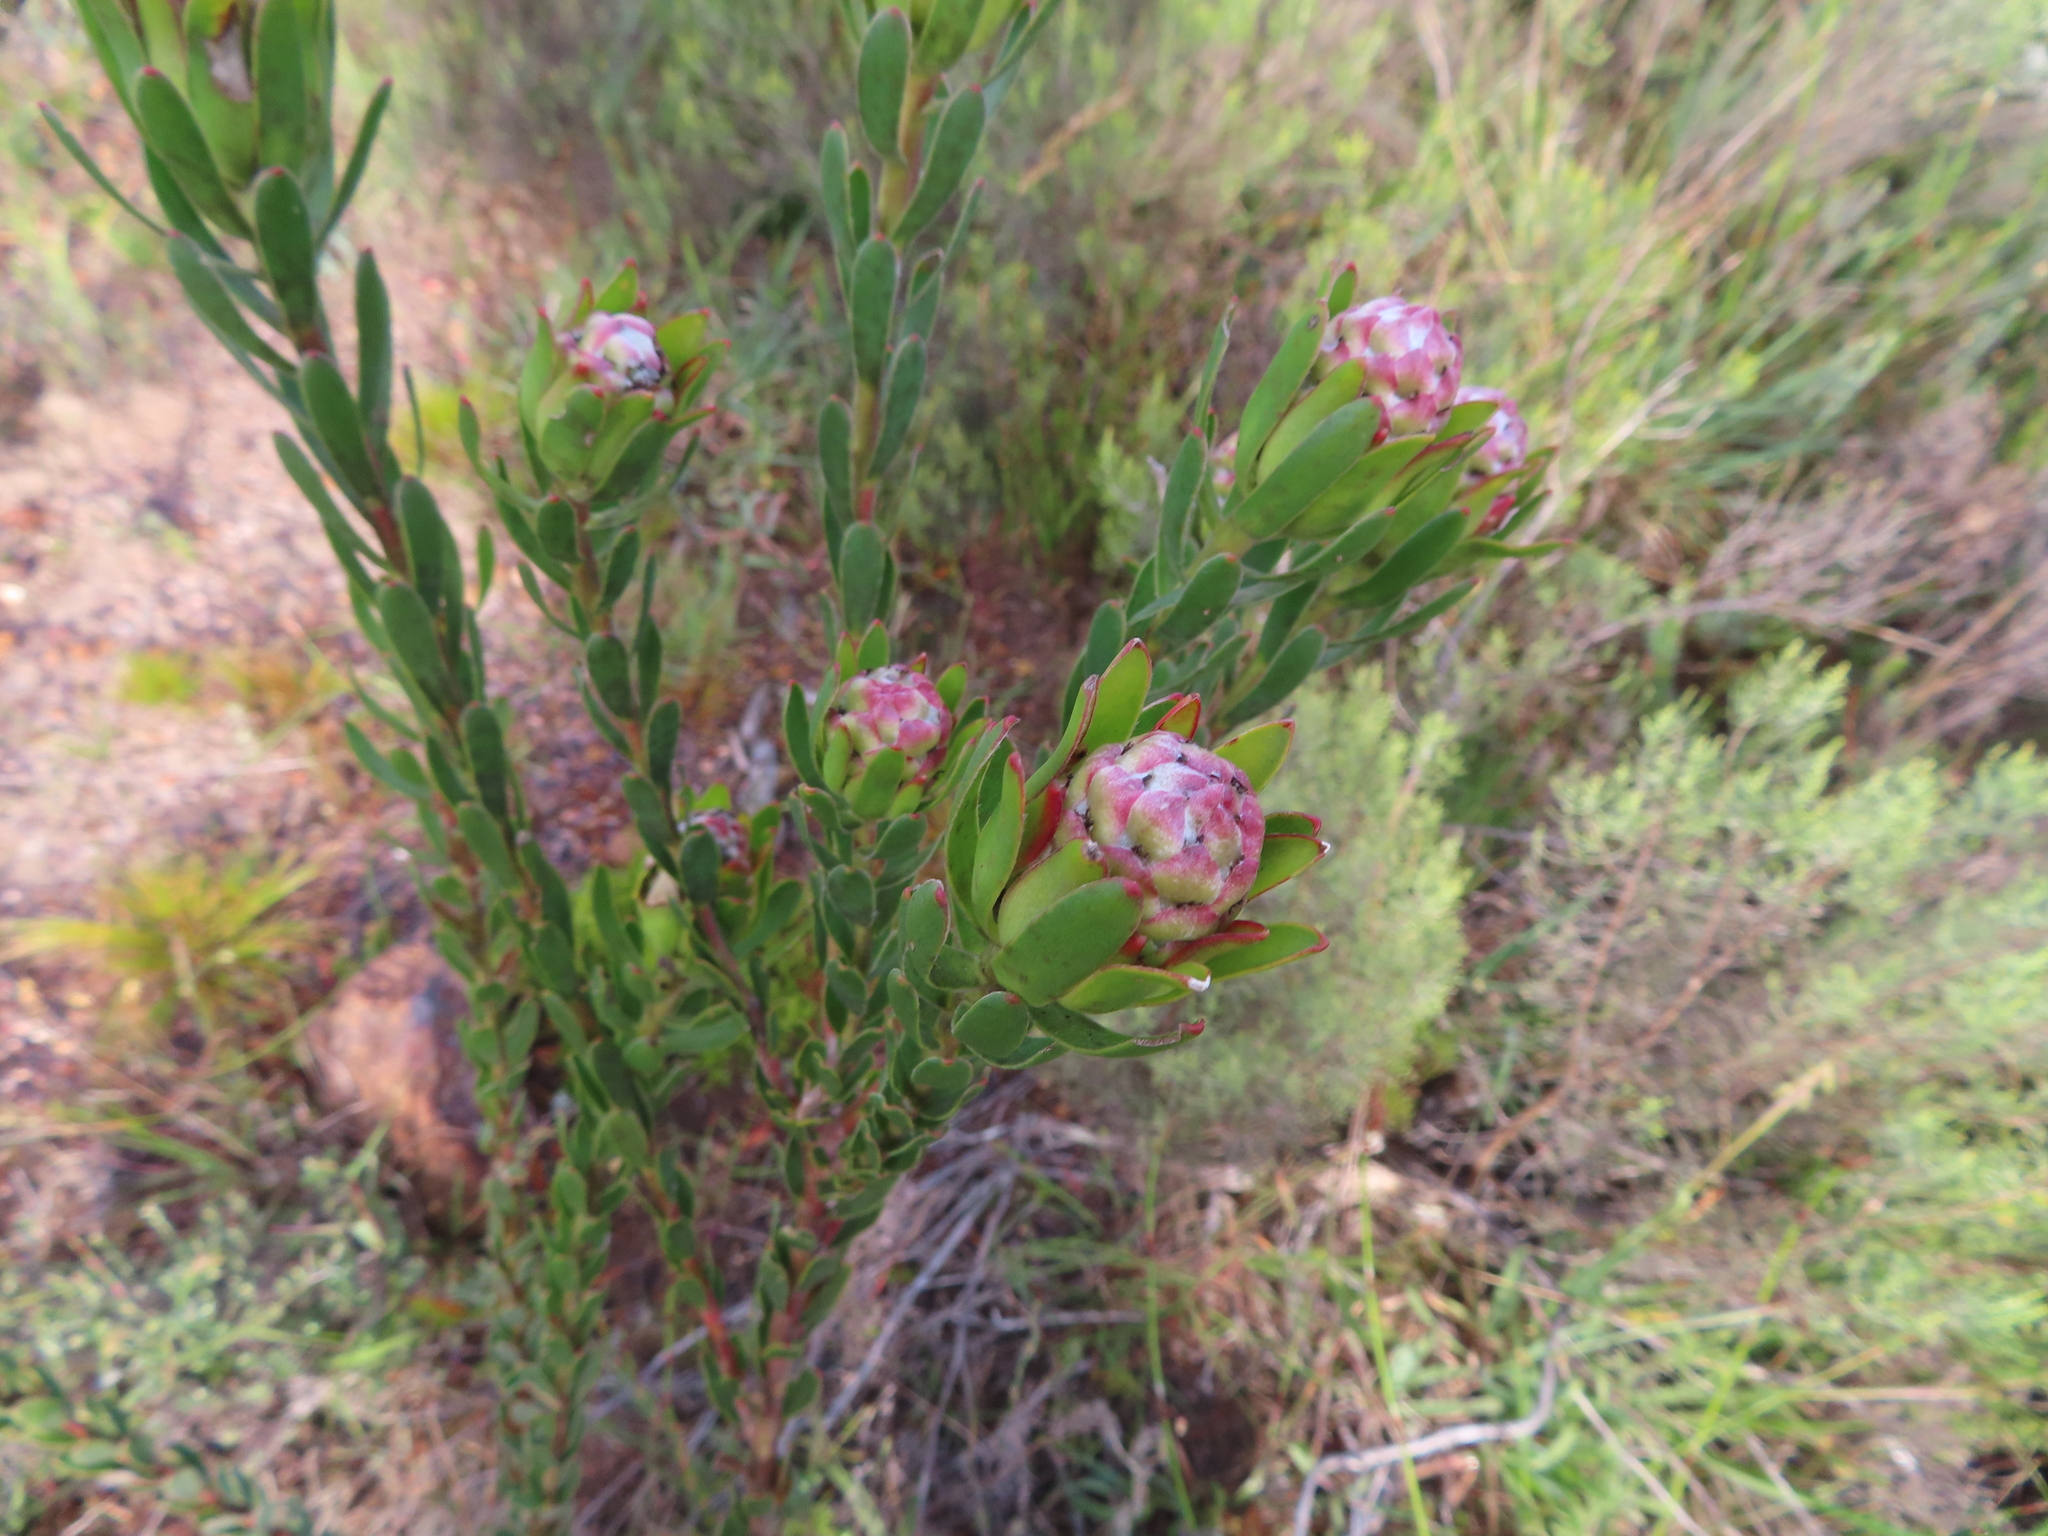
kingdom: Plantae
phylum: Tracheophyta
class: Magnoliopsida
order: Proteales
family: Proteaceae
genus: Leucadendron
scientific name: Leucadendron stelligerum
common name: Agulhas conebush
